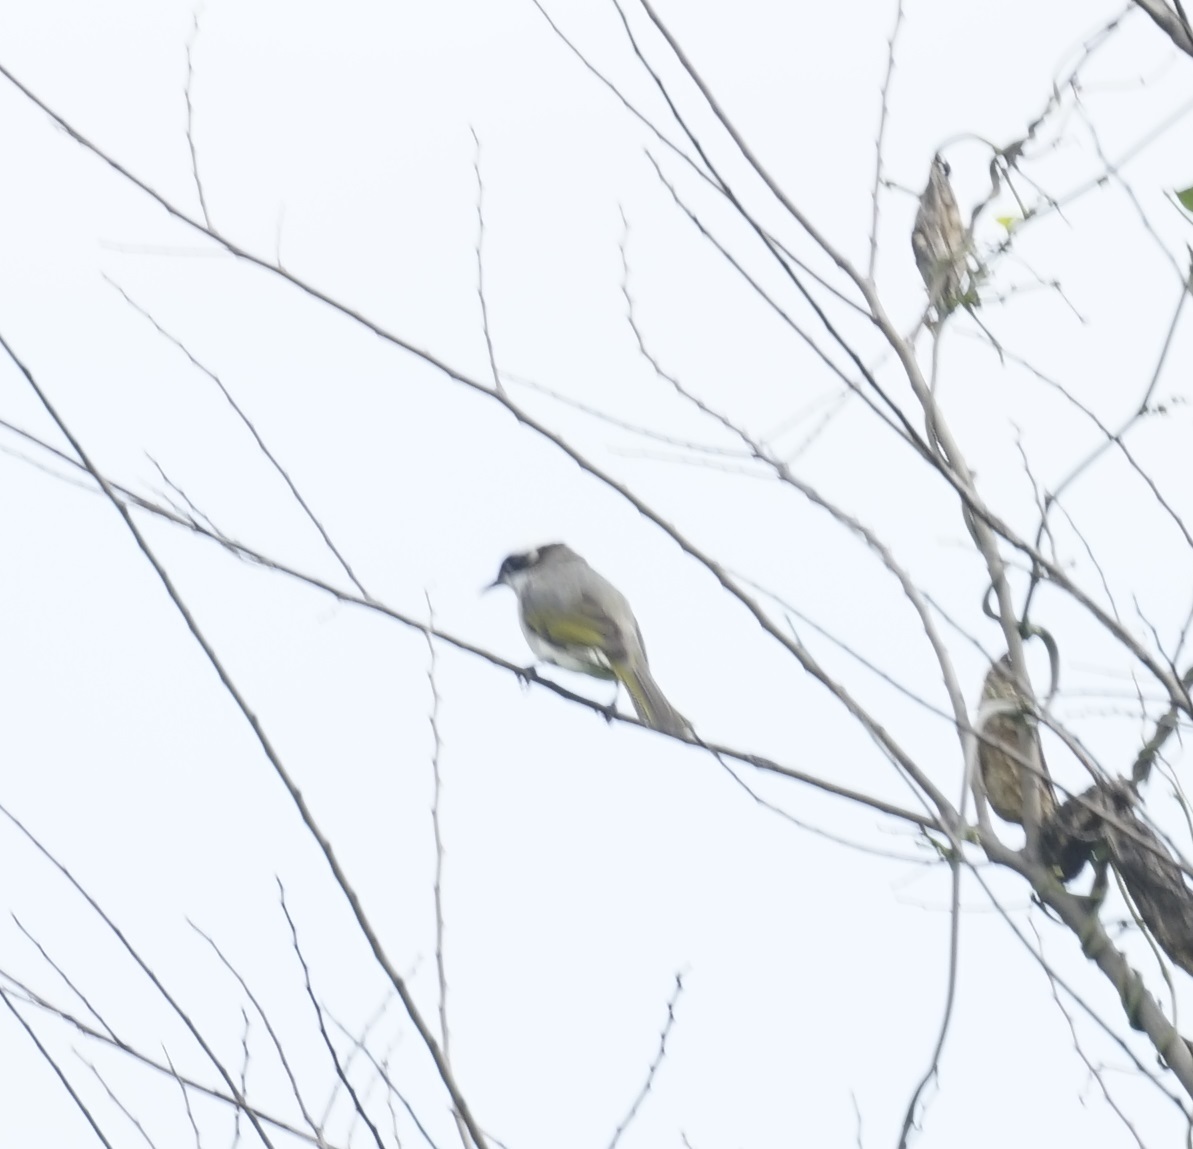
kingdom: Animalia
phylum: Chordata
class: Aves
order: Passeriformes
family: Pycnonotidae
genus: Pycnonotus
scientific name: Pycnonotus sinensis
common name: Light-vented bulbul
